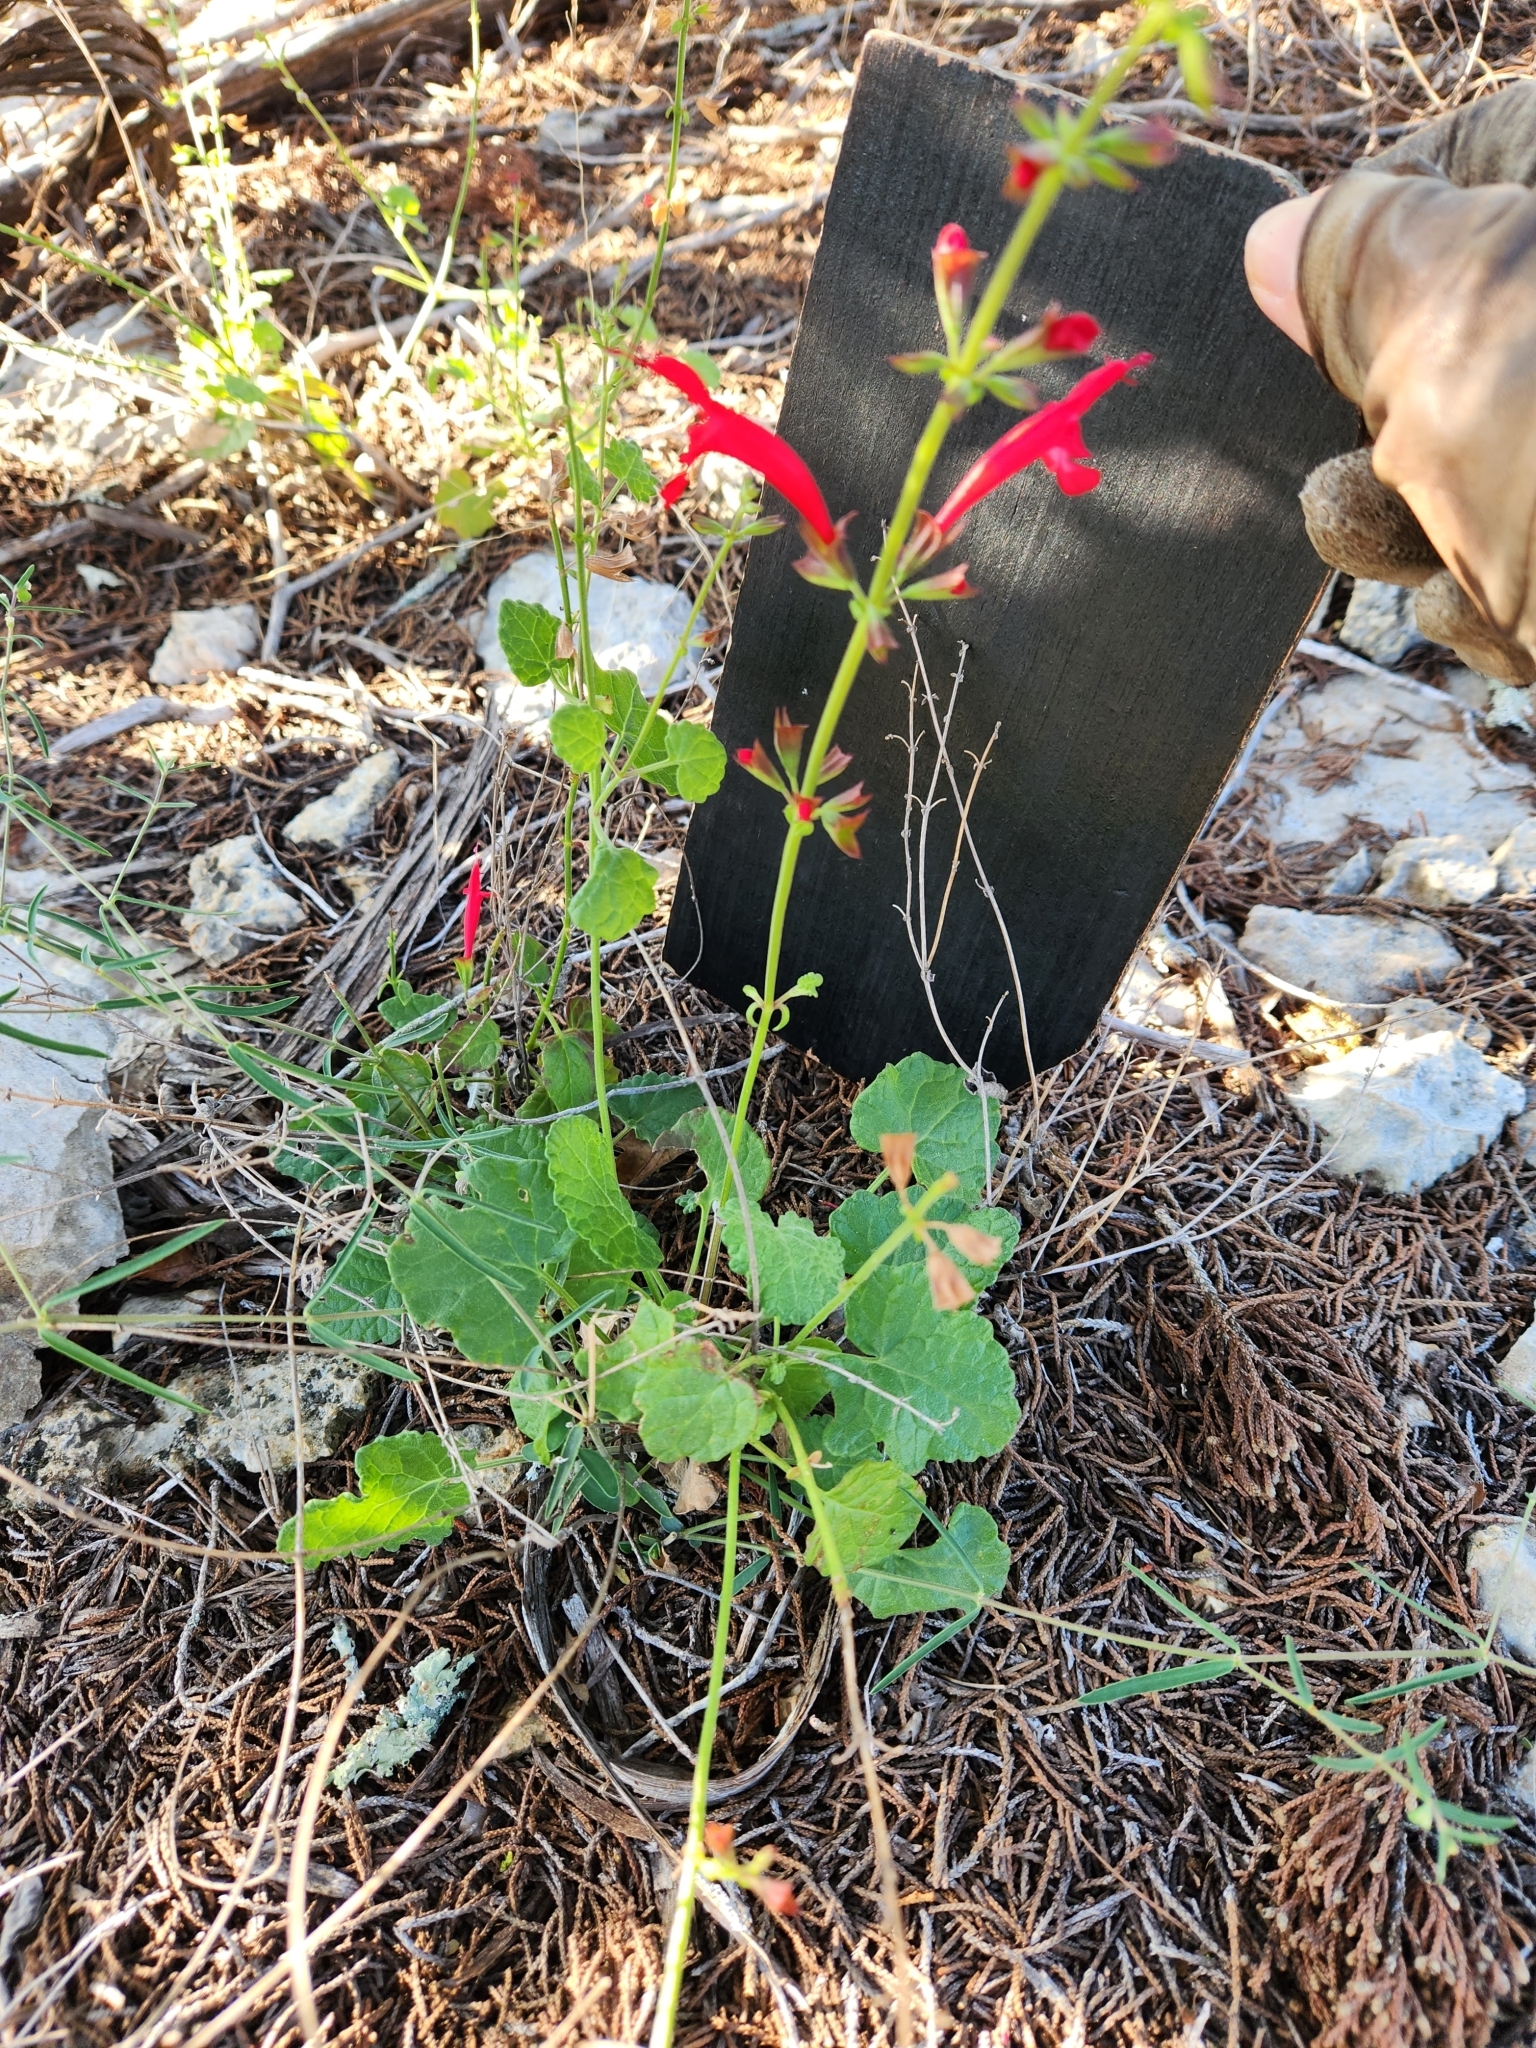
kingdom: Plantae
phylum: Tracheophyta
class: Magnoliopsida
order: Lamiales
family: Lamiaceae
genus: Salvia
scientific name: Salvia roemeriana
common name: Cedar sage
